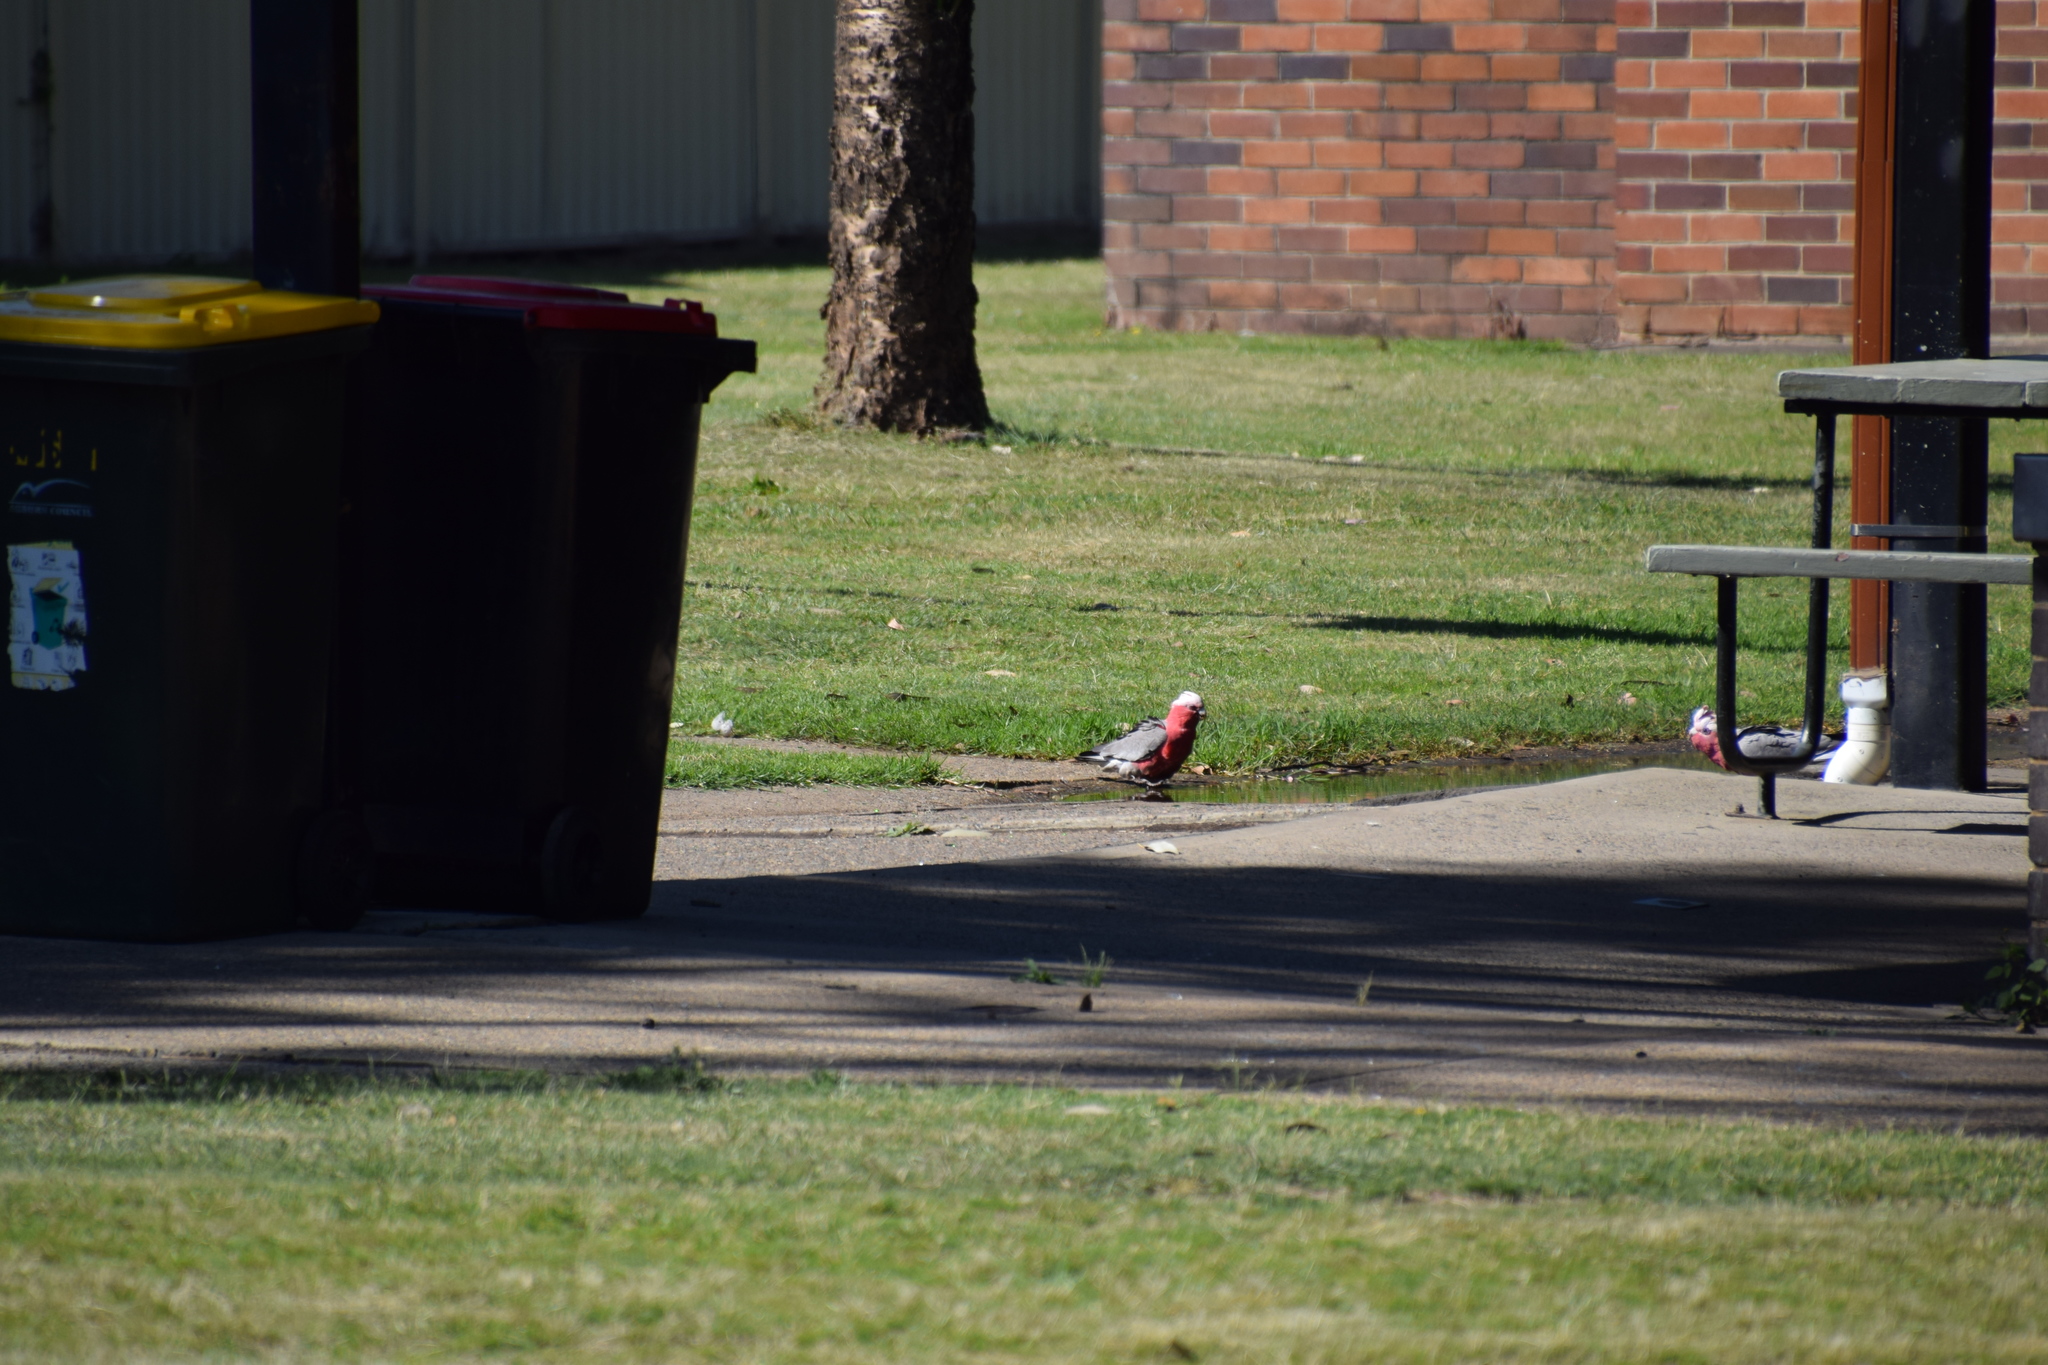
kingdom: Animalia
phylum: Chordata
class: Aves
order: Psittaciformes
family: Psittacidae
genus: Eolophus
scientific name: Eolophus roseicapilla
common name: Galah
